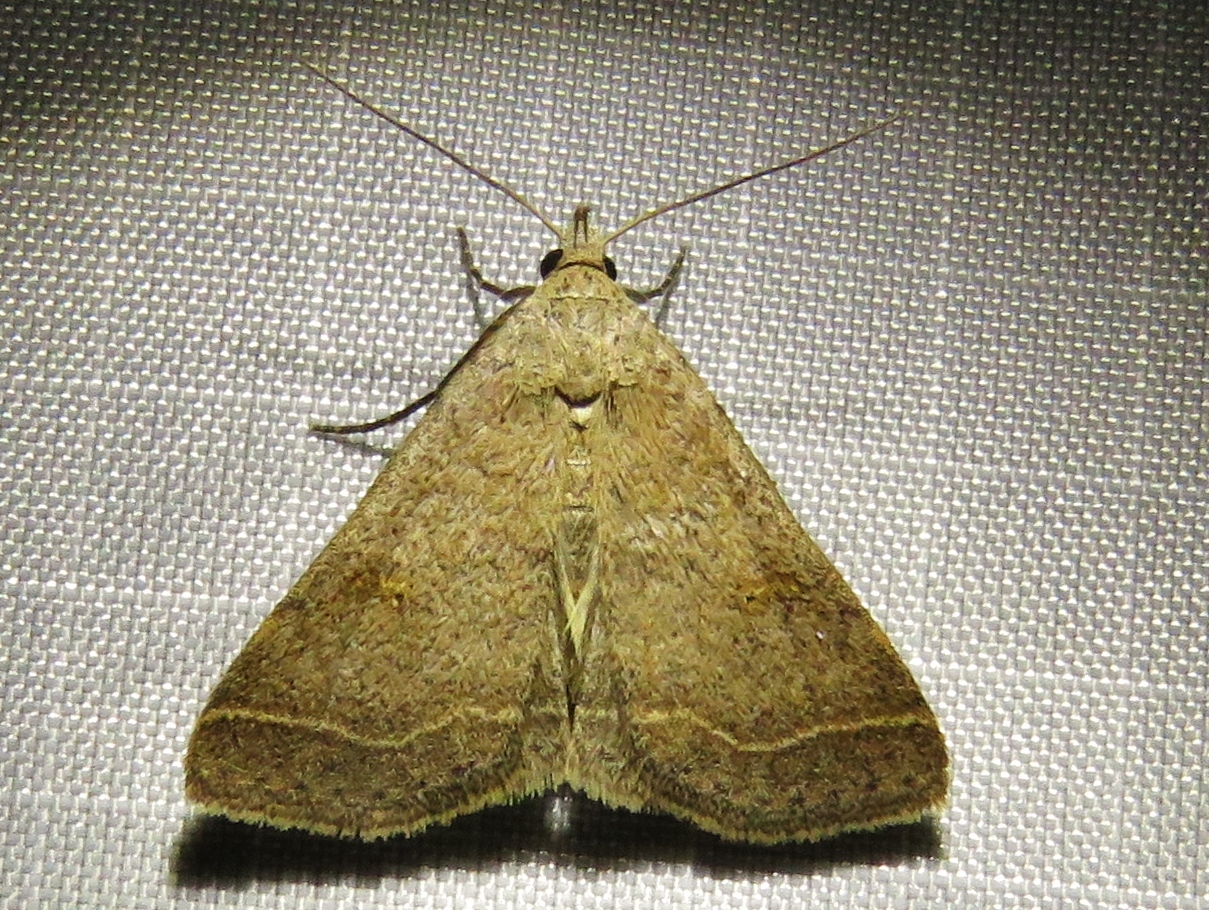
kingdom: Animalia
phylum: Arthropoda
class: Insecta
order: Lepidoptera
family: Erebidae
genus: Bleptina
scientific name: Bleptina caradrinalis
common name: Bent-winged owlet
